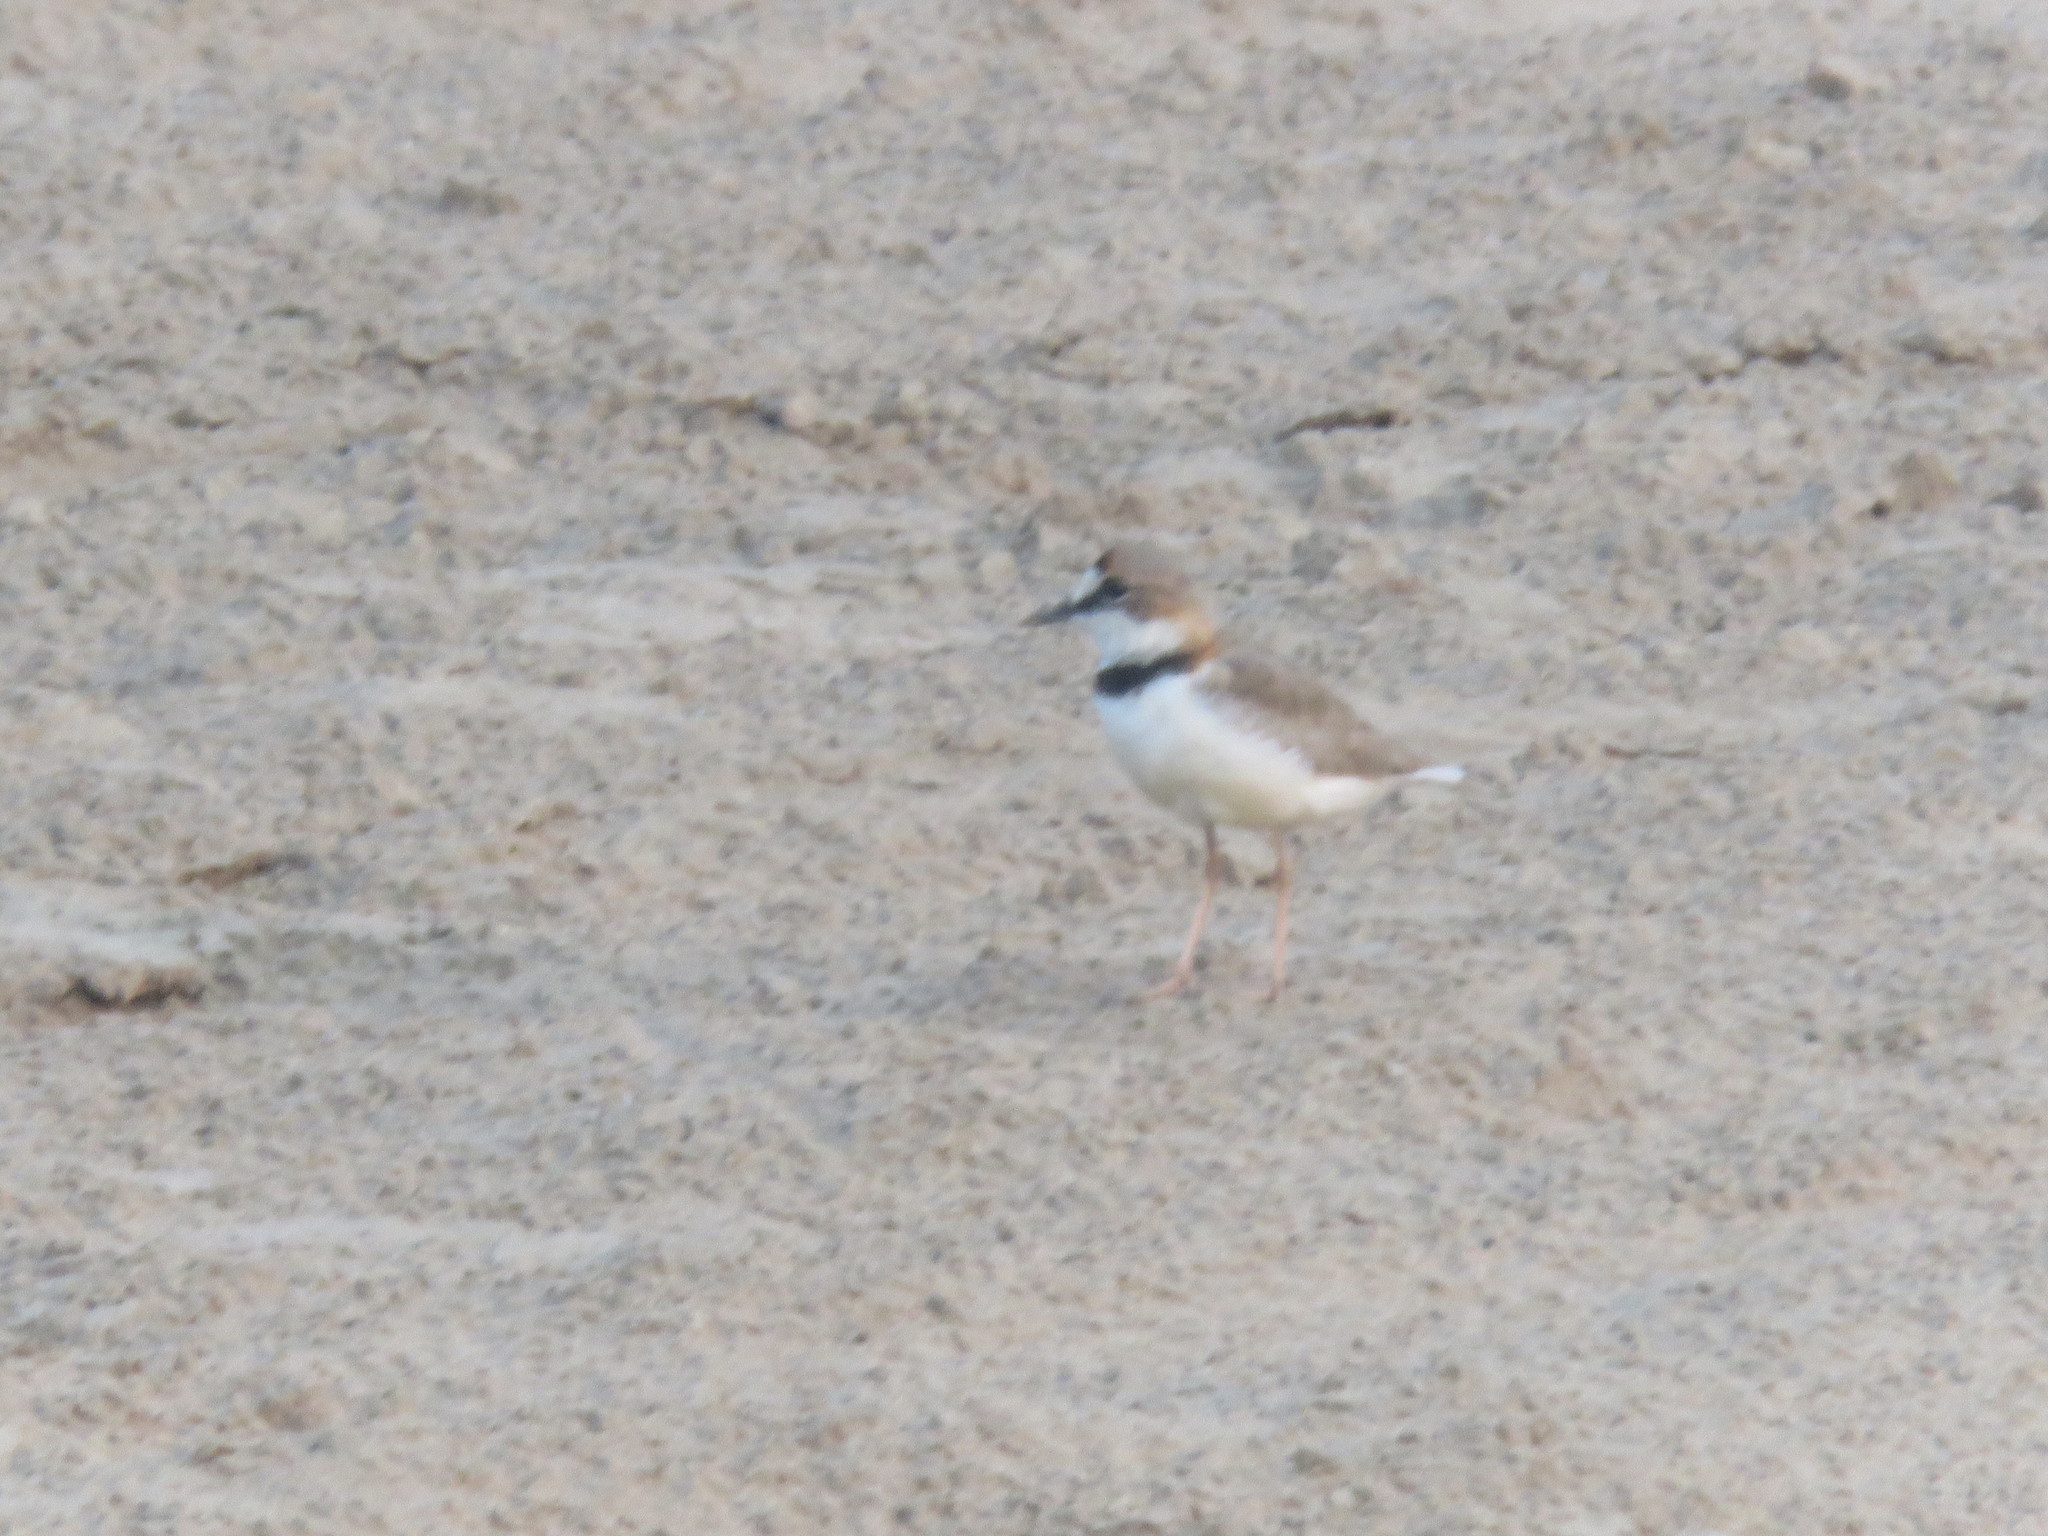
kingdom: Animalia
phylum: Chordata
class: Aves
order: Charadriiformes
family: Charadriidae
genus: Anarhynchus
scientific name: Anarhynchus
